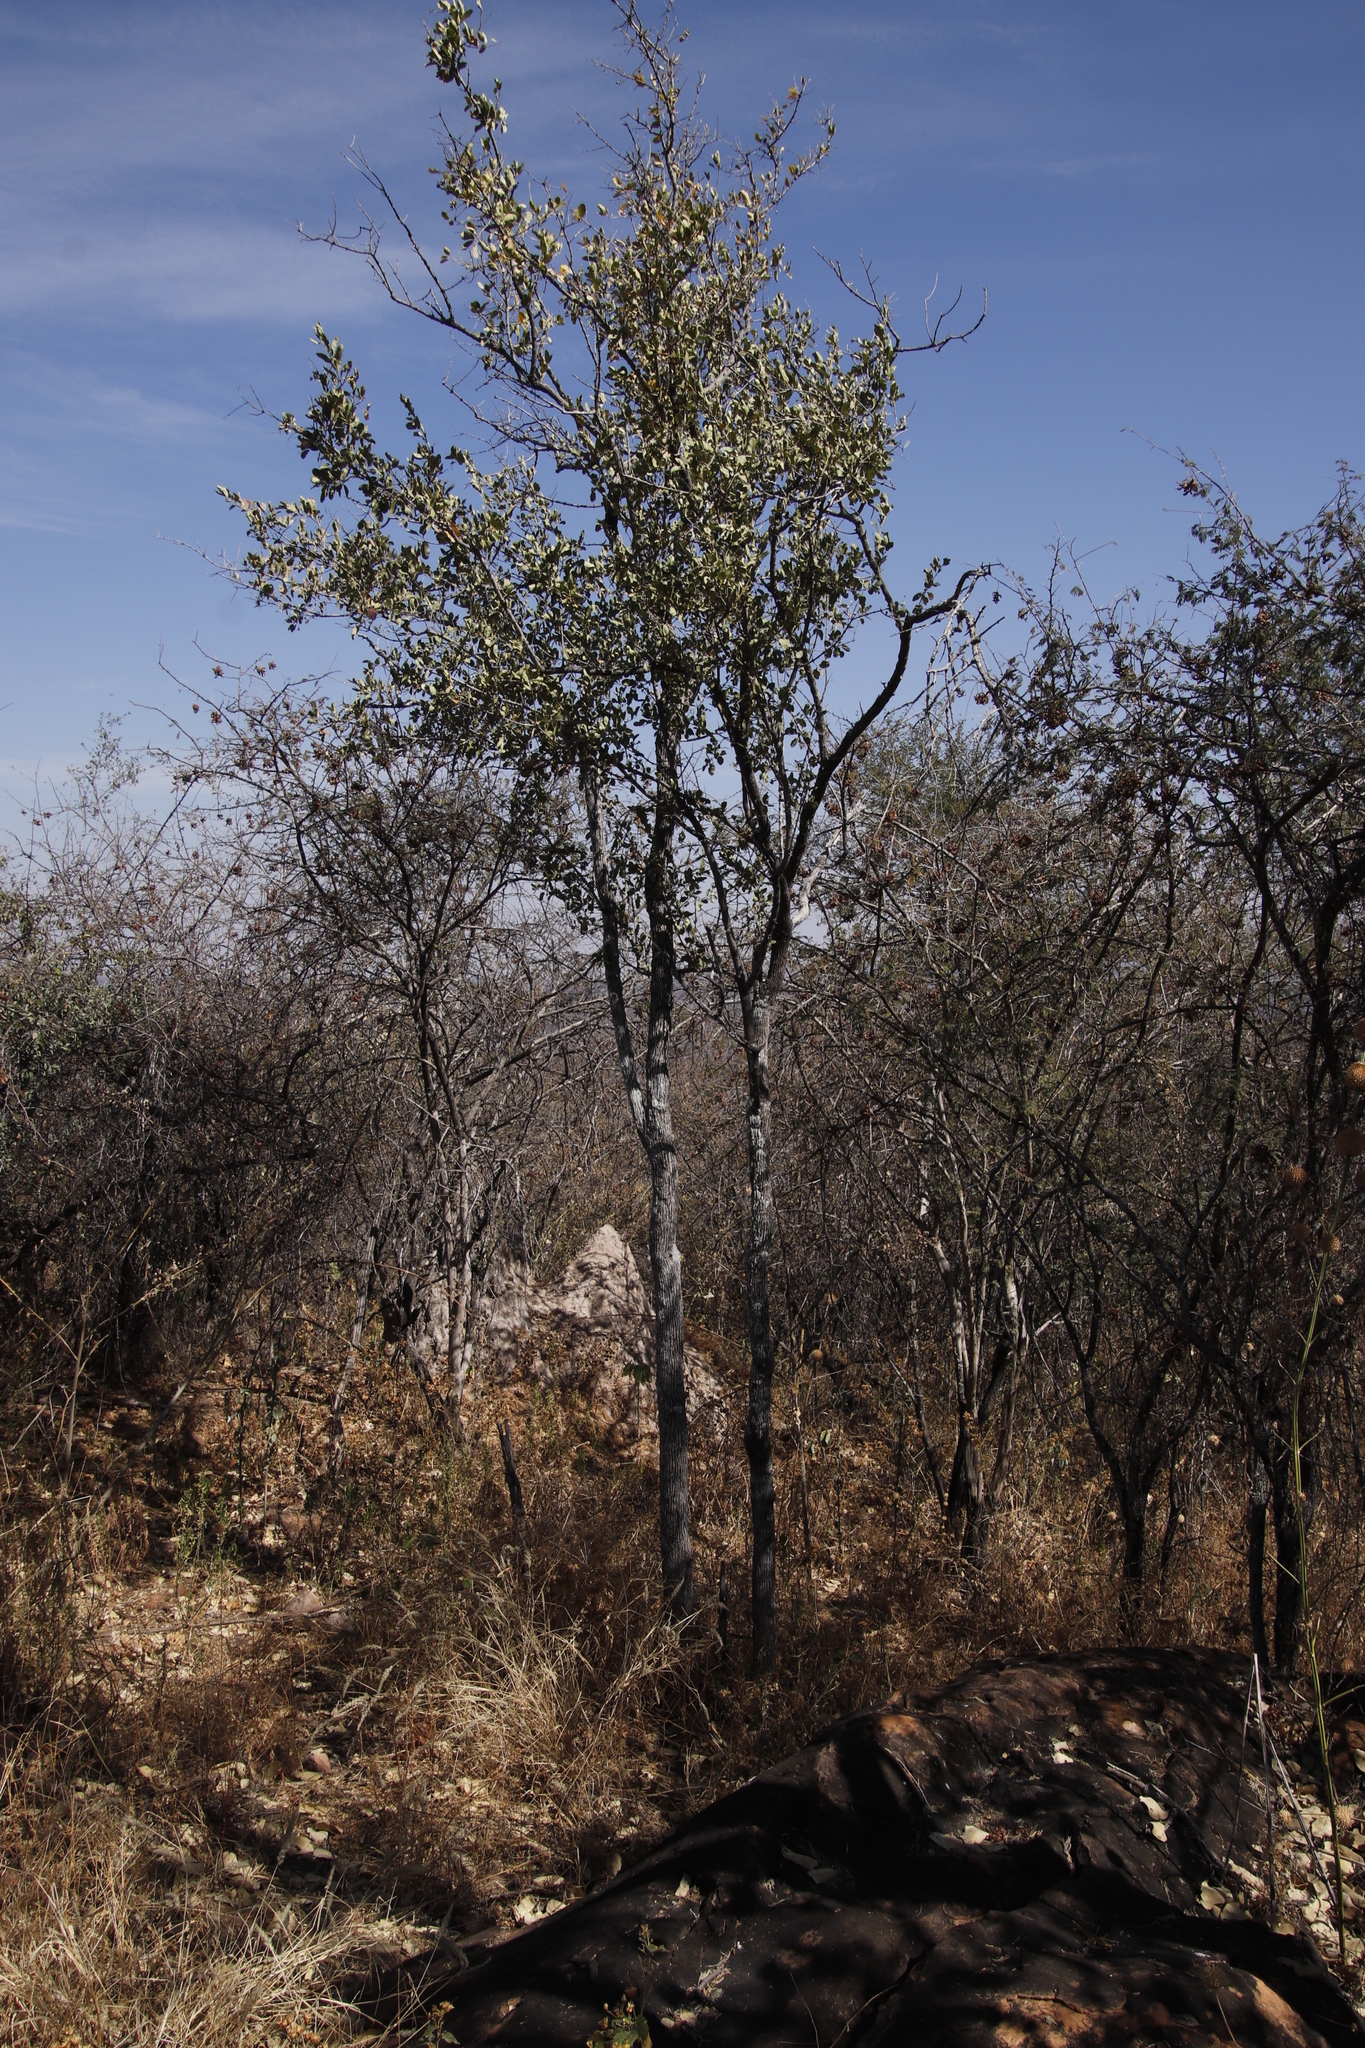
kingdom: Plantae
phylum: Tracheophyta
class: Magnoliopsida
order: Myrtales
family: Combretaceae
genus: Combretum
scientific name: Combretum imberbe
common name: Leadwood
